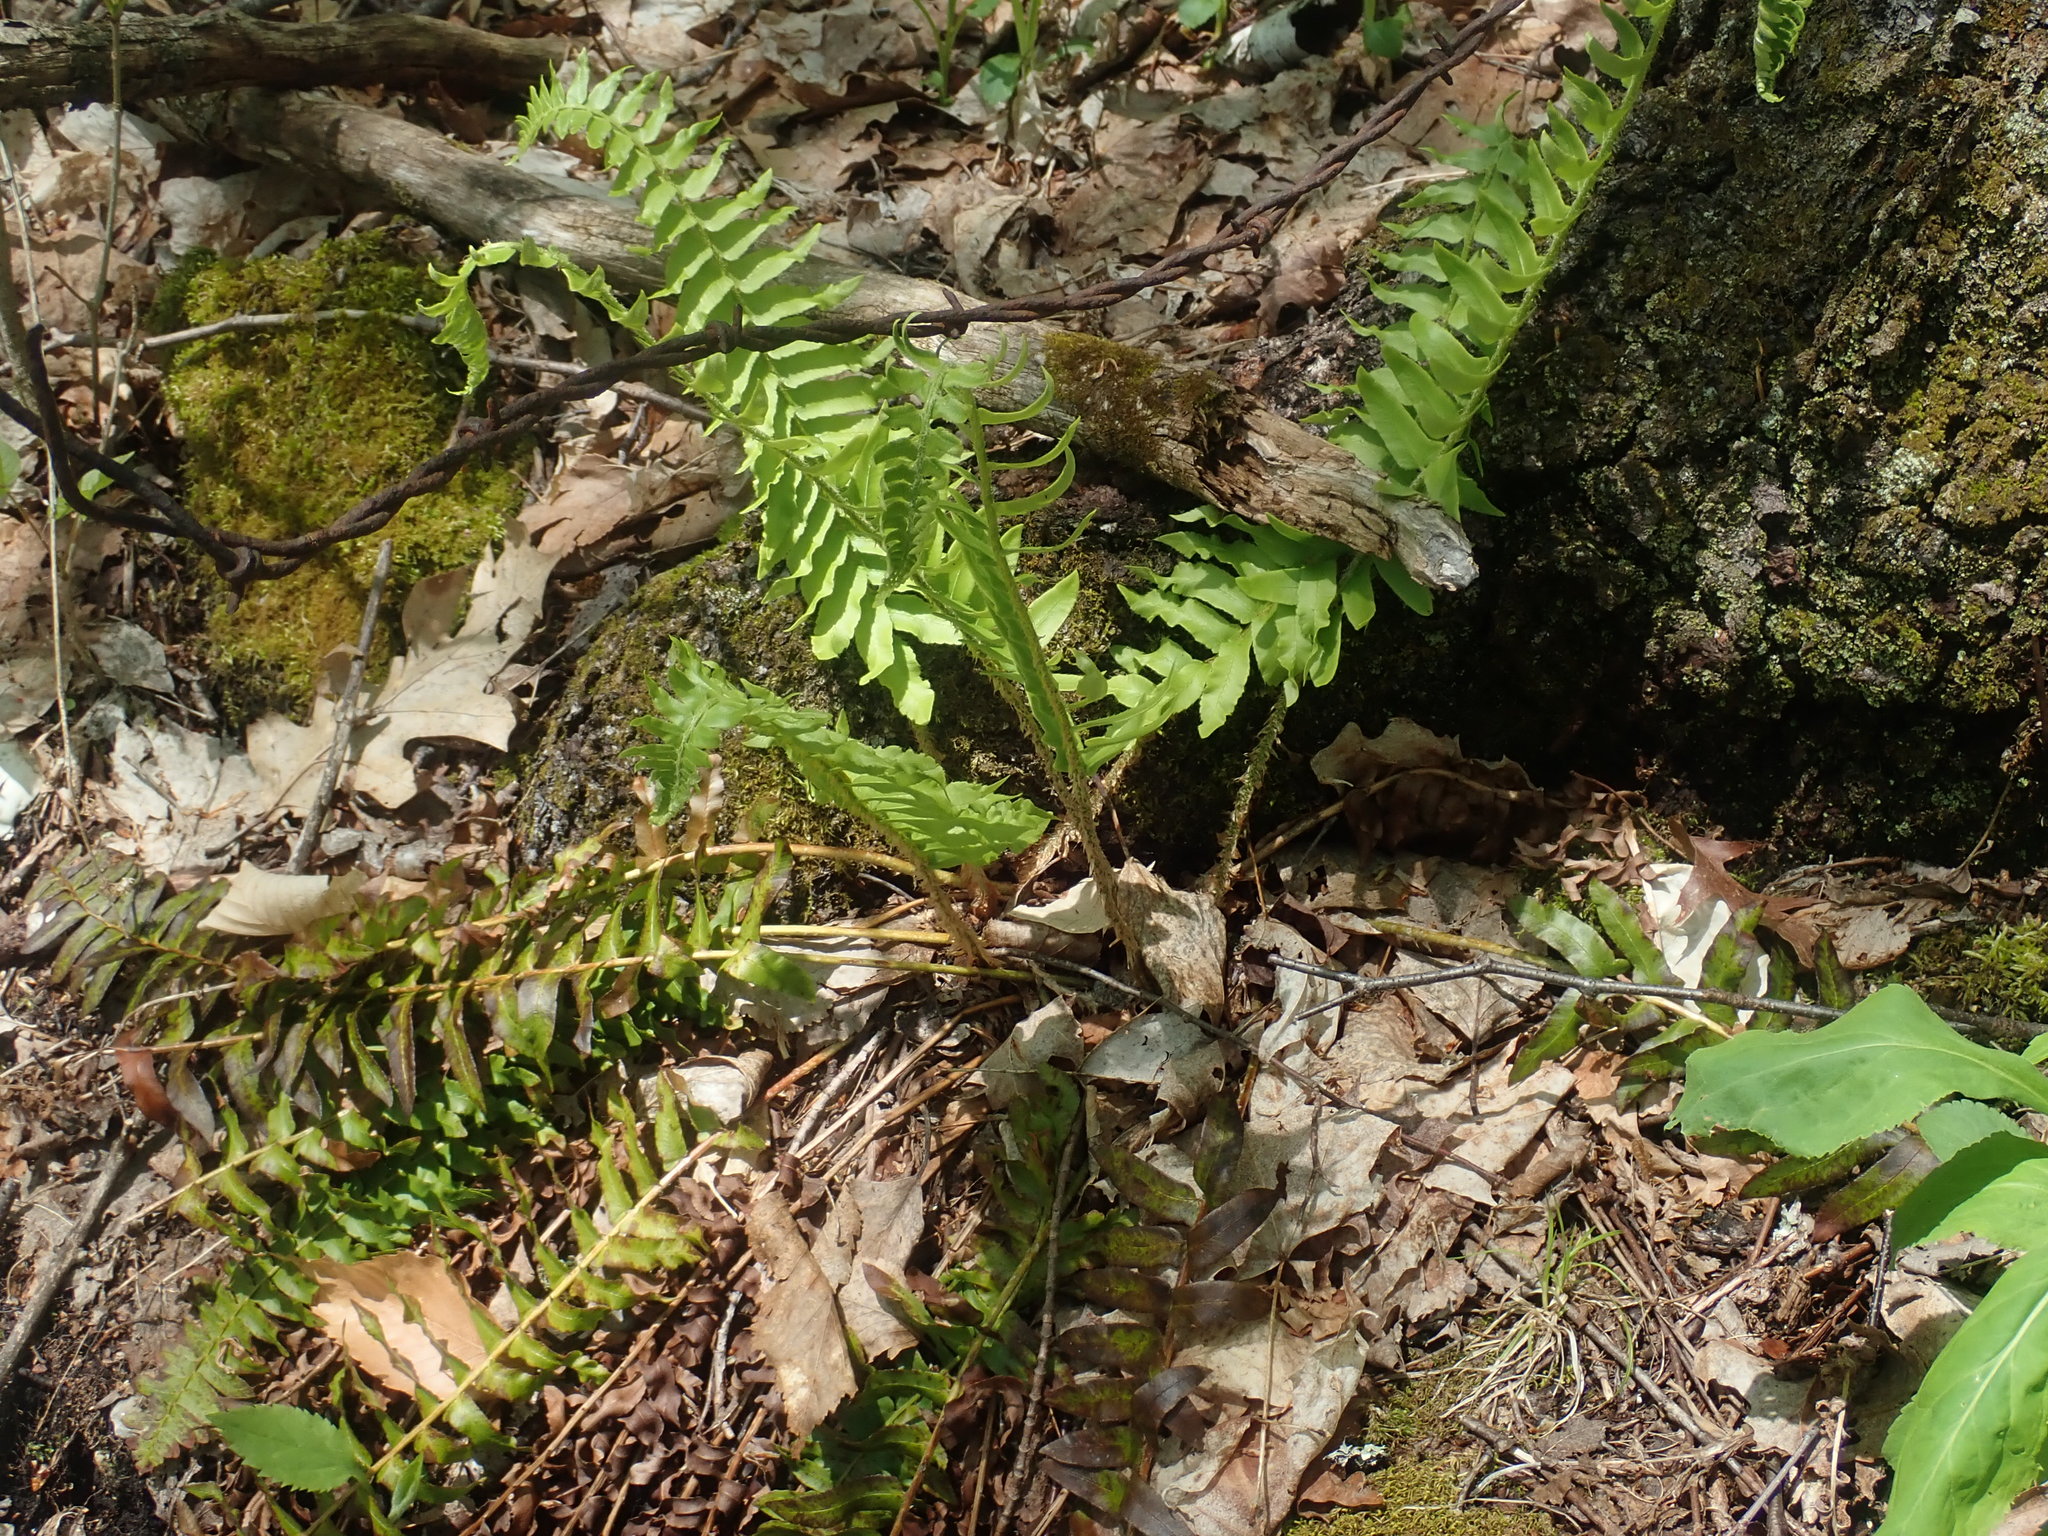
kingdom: Plantae
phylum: Tracheophyta
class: Polypodiopsida
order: Polypodiales
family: Dryopteridaceae
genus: Polystichum
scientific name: Polystichum acrostichoides
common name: Christmas fern
